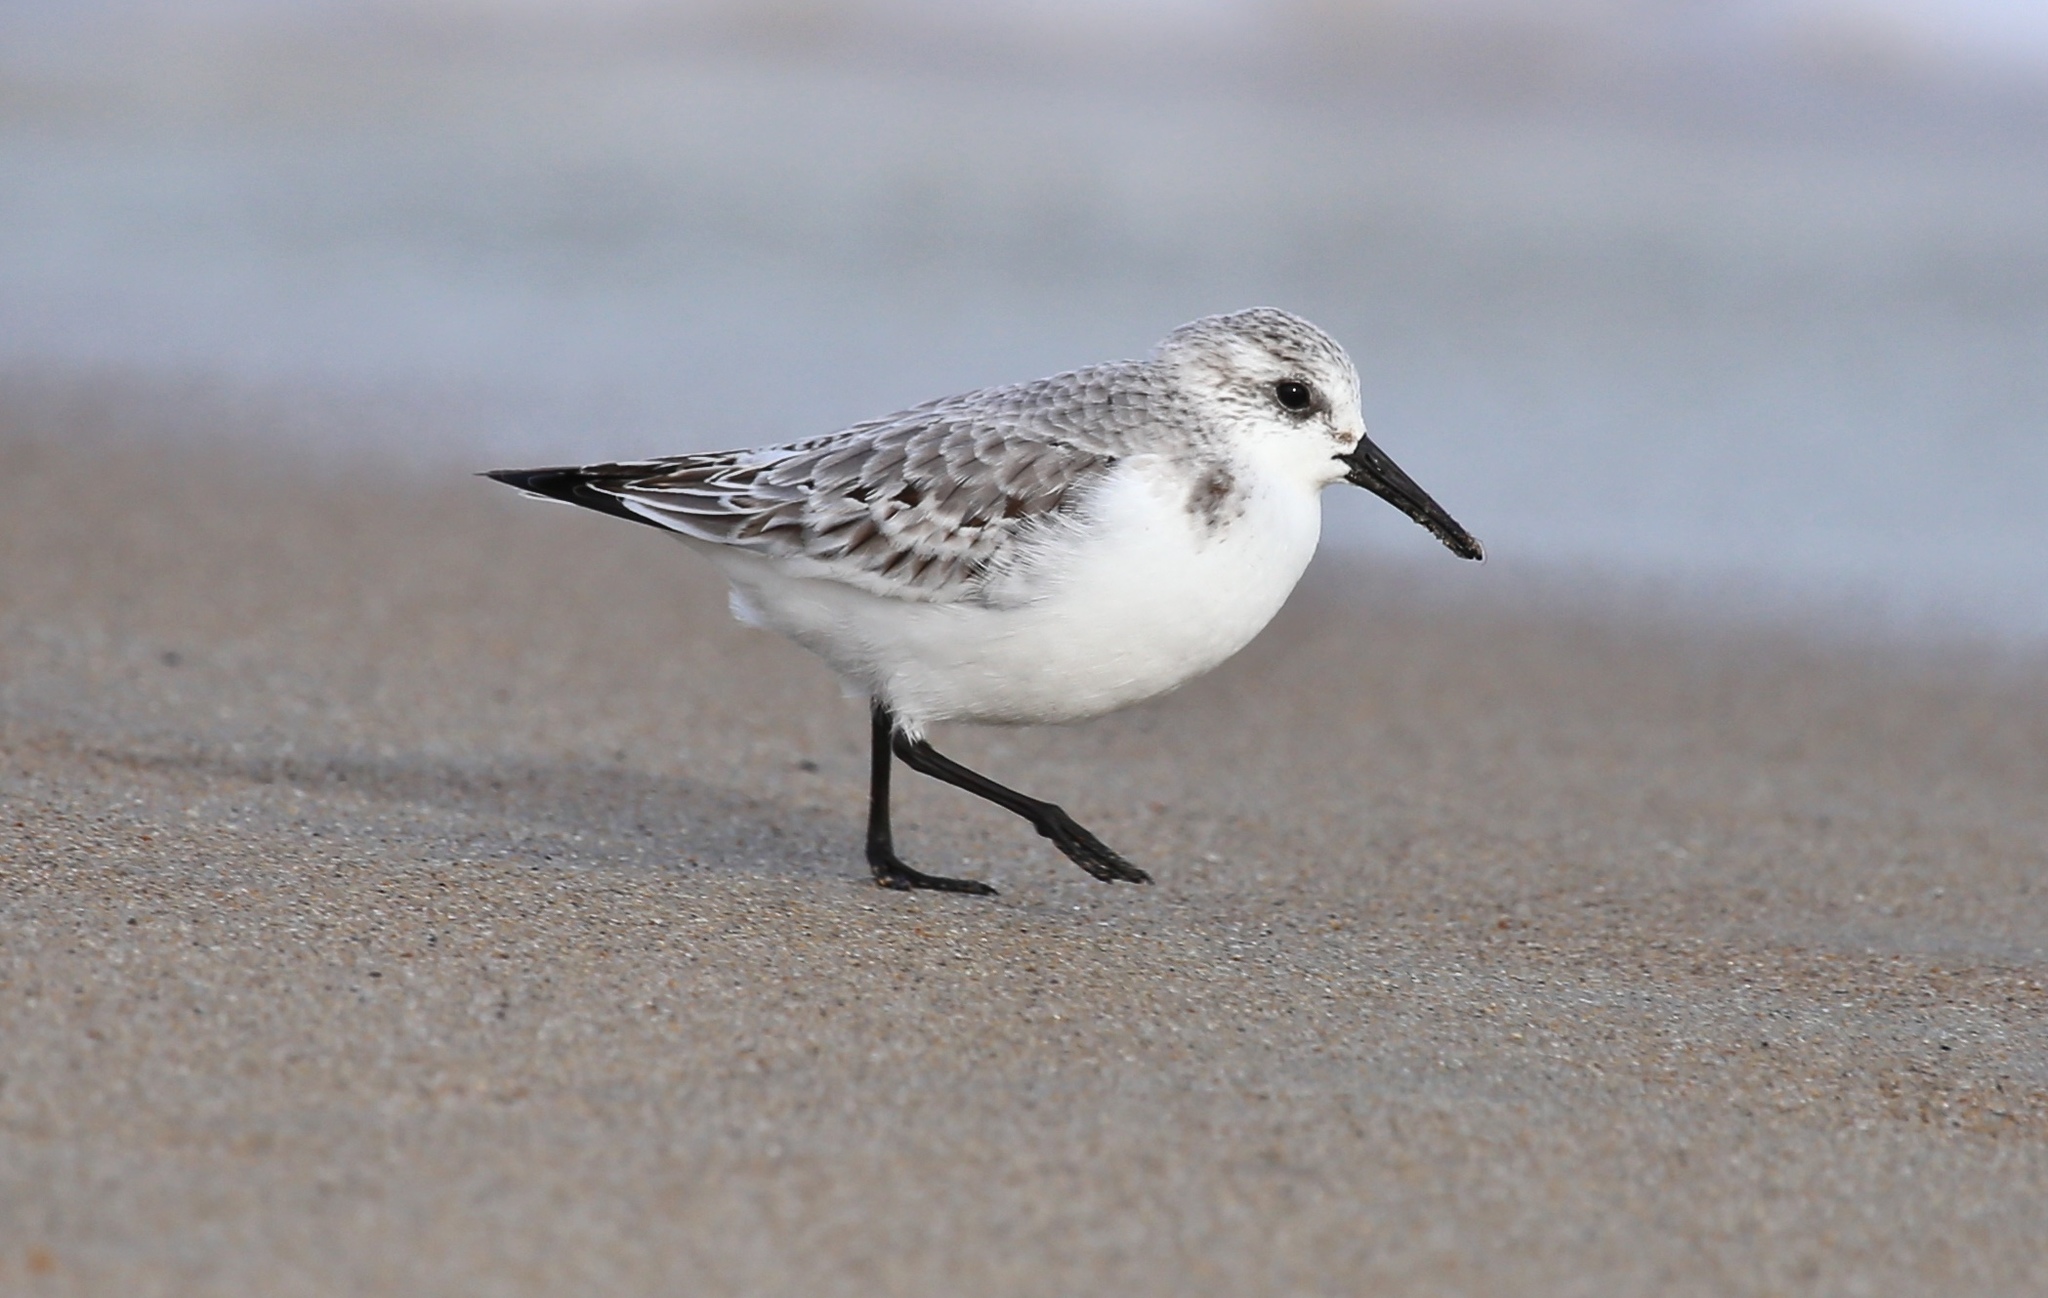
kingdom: Animalia
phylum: Chordata
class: Aves
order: Charadriiformes
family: Scolopacidae
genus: Calidris
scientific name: Calidris alba
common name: Sanderling
